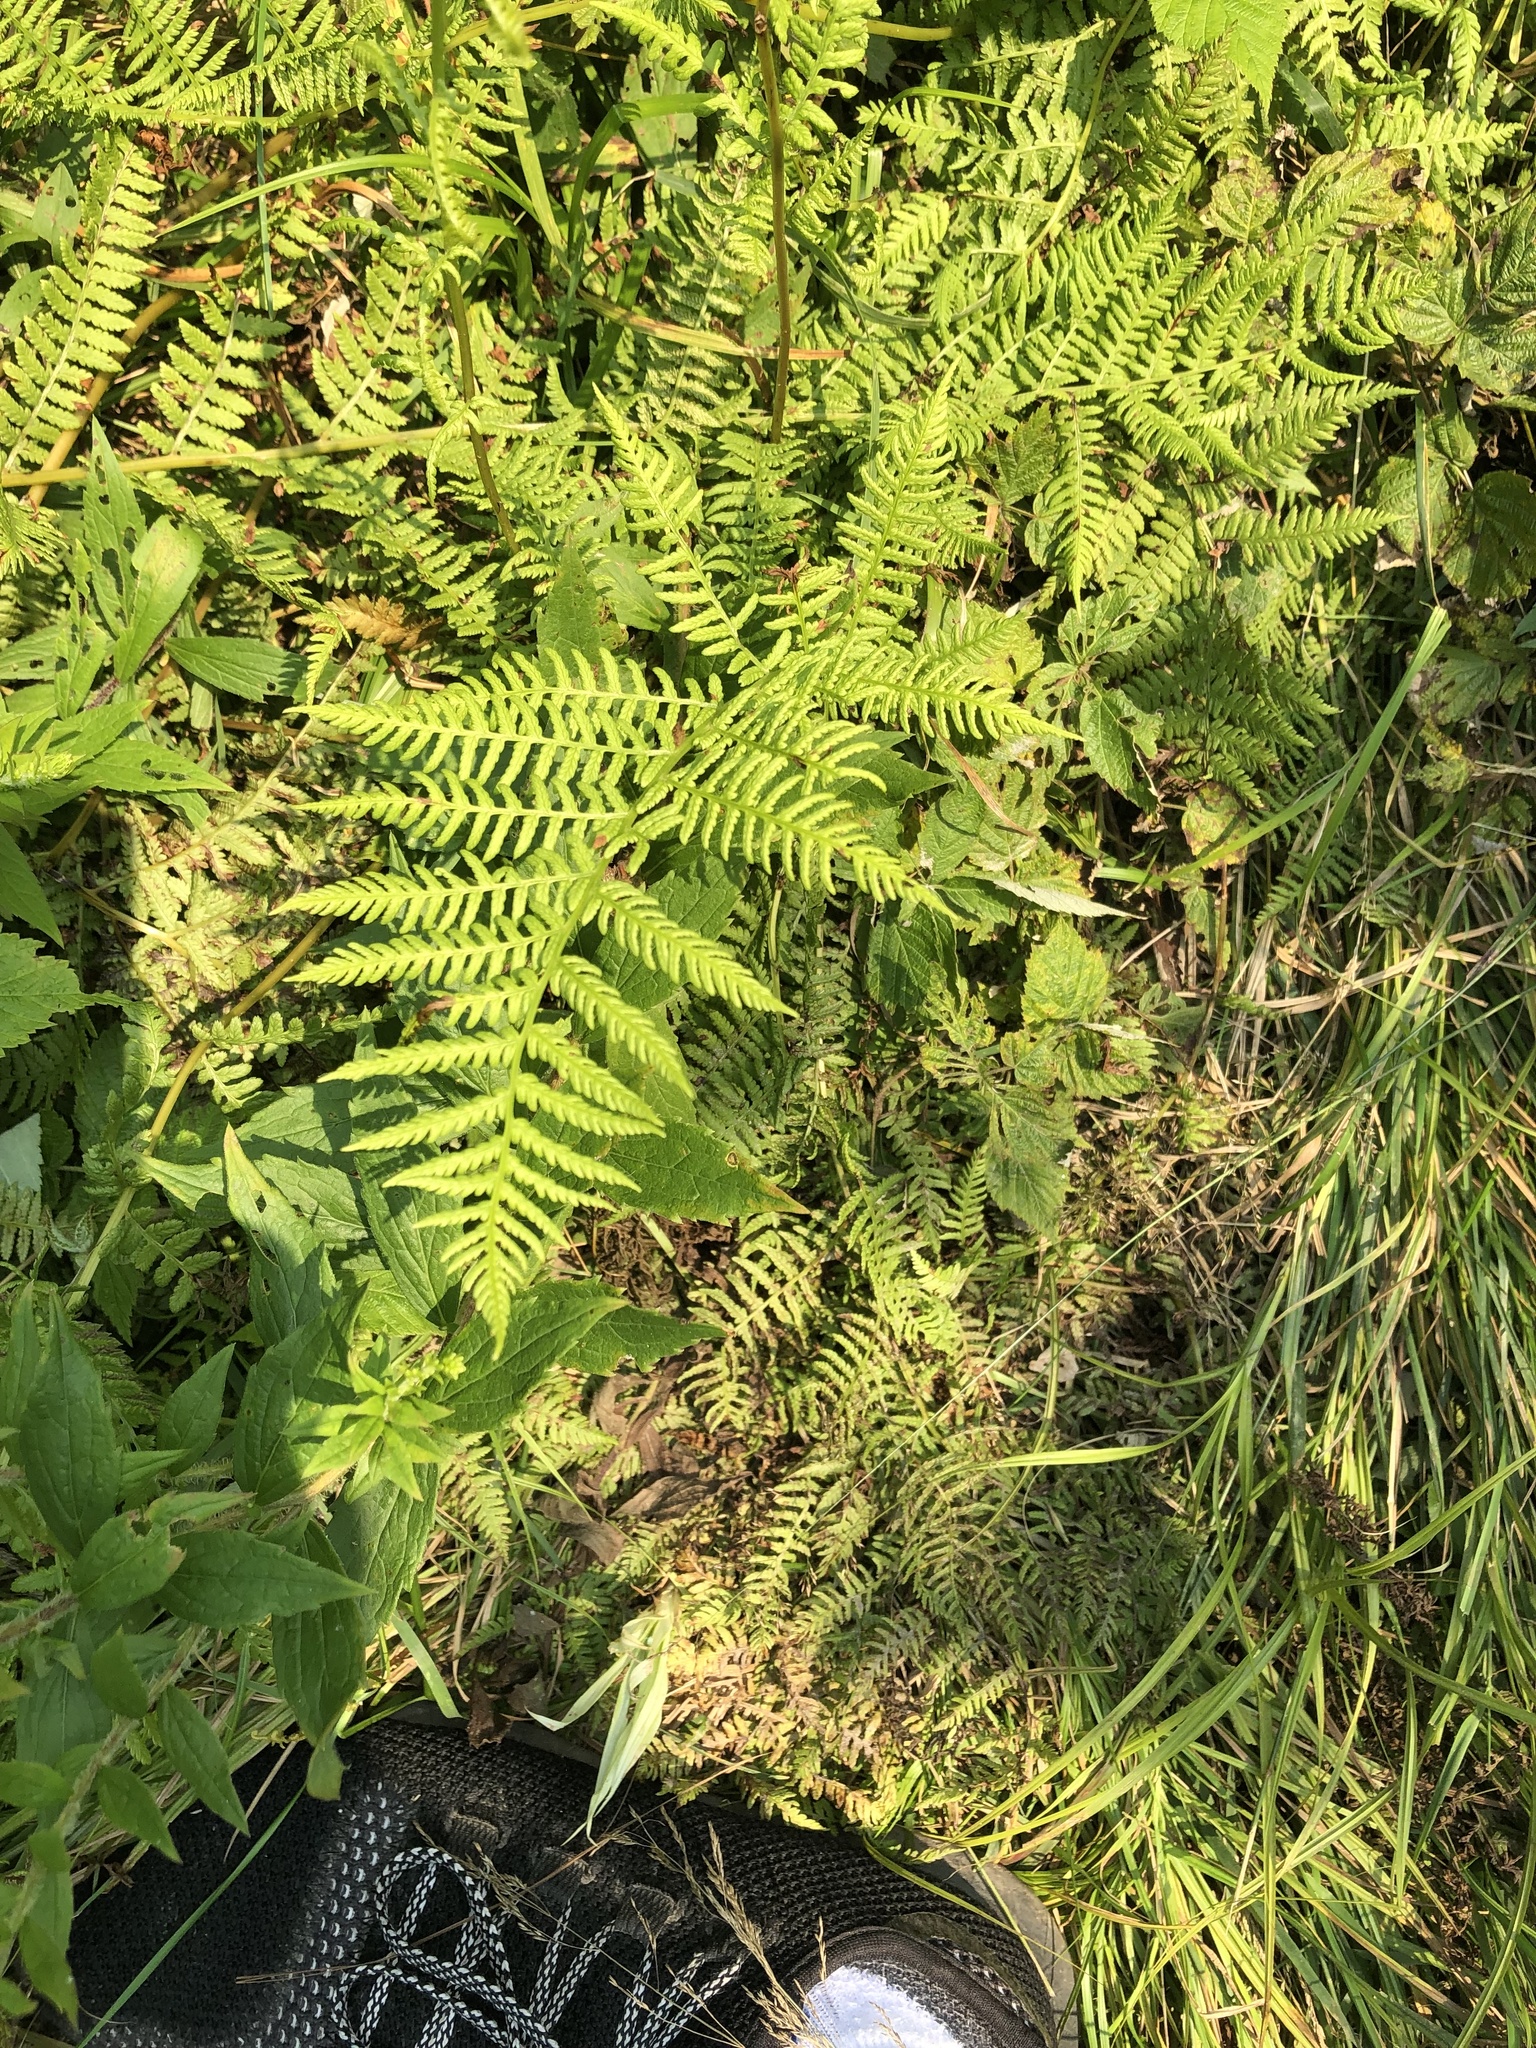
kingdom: Plantae
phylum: Tracheophyta
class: Polypodiopsida
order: Polypodiales
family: Athyriaceae
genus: Athyrium
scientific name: Athyrium angustum
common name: Northern lady fern
